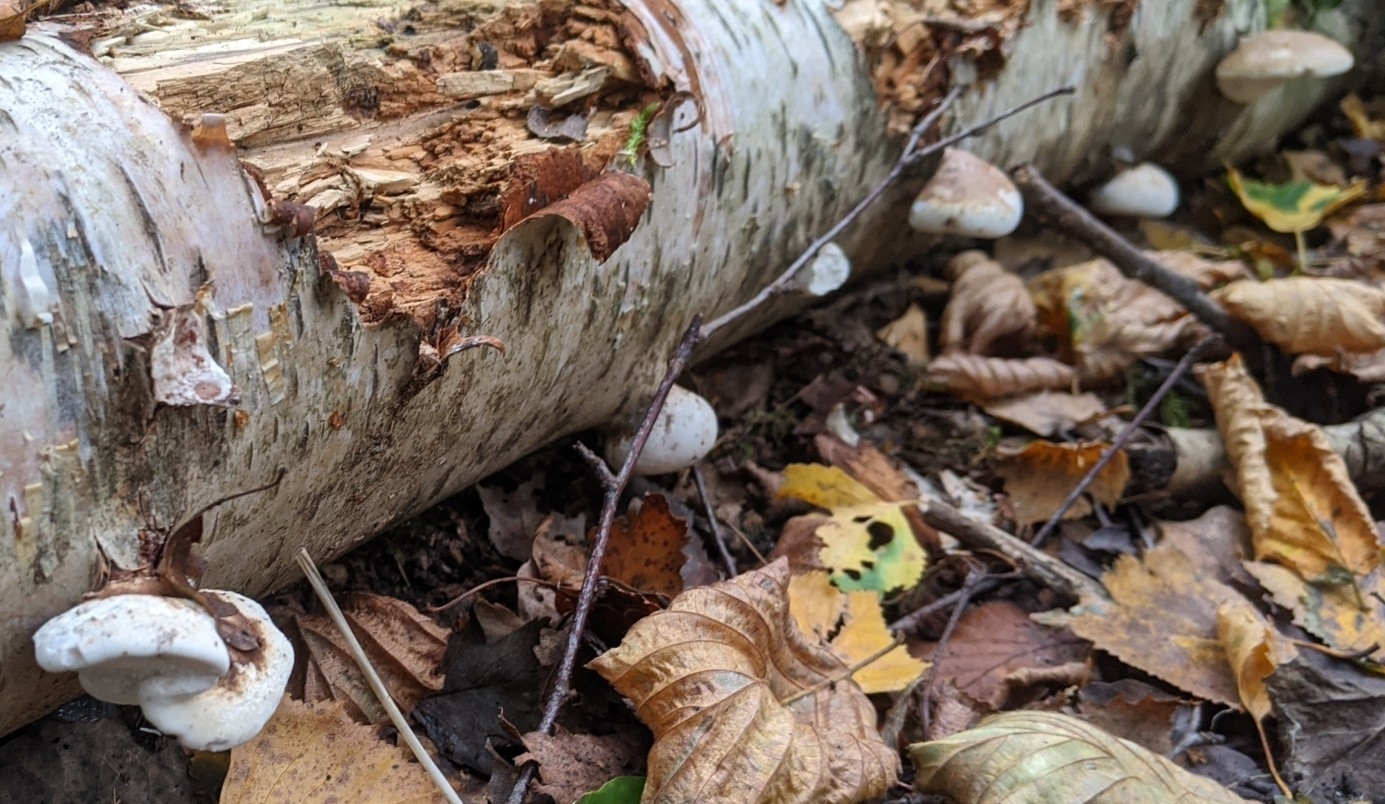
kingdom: Fungi
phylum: Basidiomycota
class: Agaricomycetes
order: Polyporales
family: Fomitopsidaceae
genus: Fomitopsis
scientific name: Fomitopsis betulina
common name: Birch polypore
